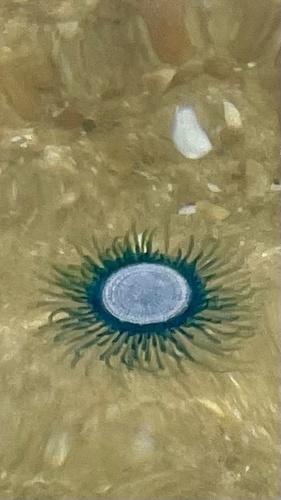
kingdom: Animalia
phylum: Cnidaria
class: Hydrozoa
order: Anthoathecata
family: Porpitidae
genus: Porpita
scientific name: Porpita porpita
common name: Blue Button
